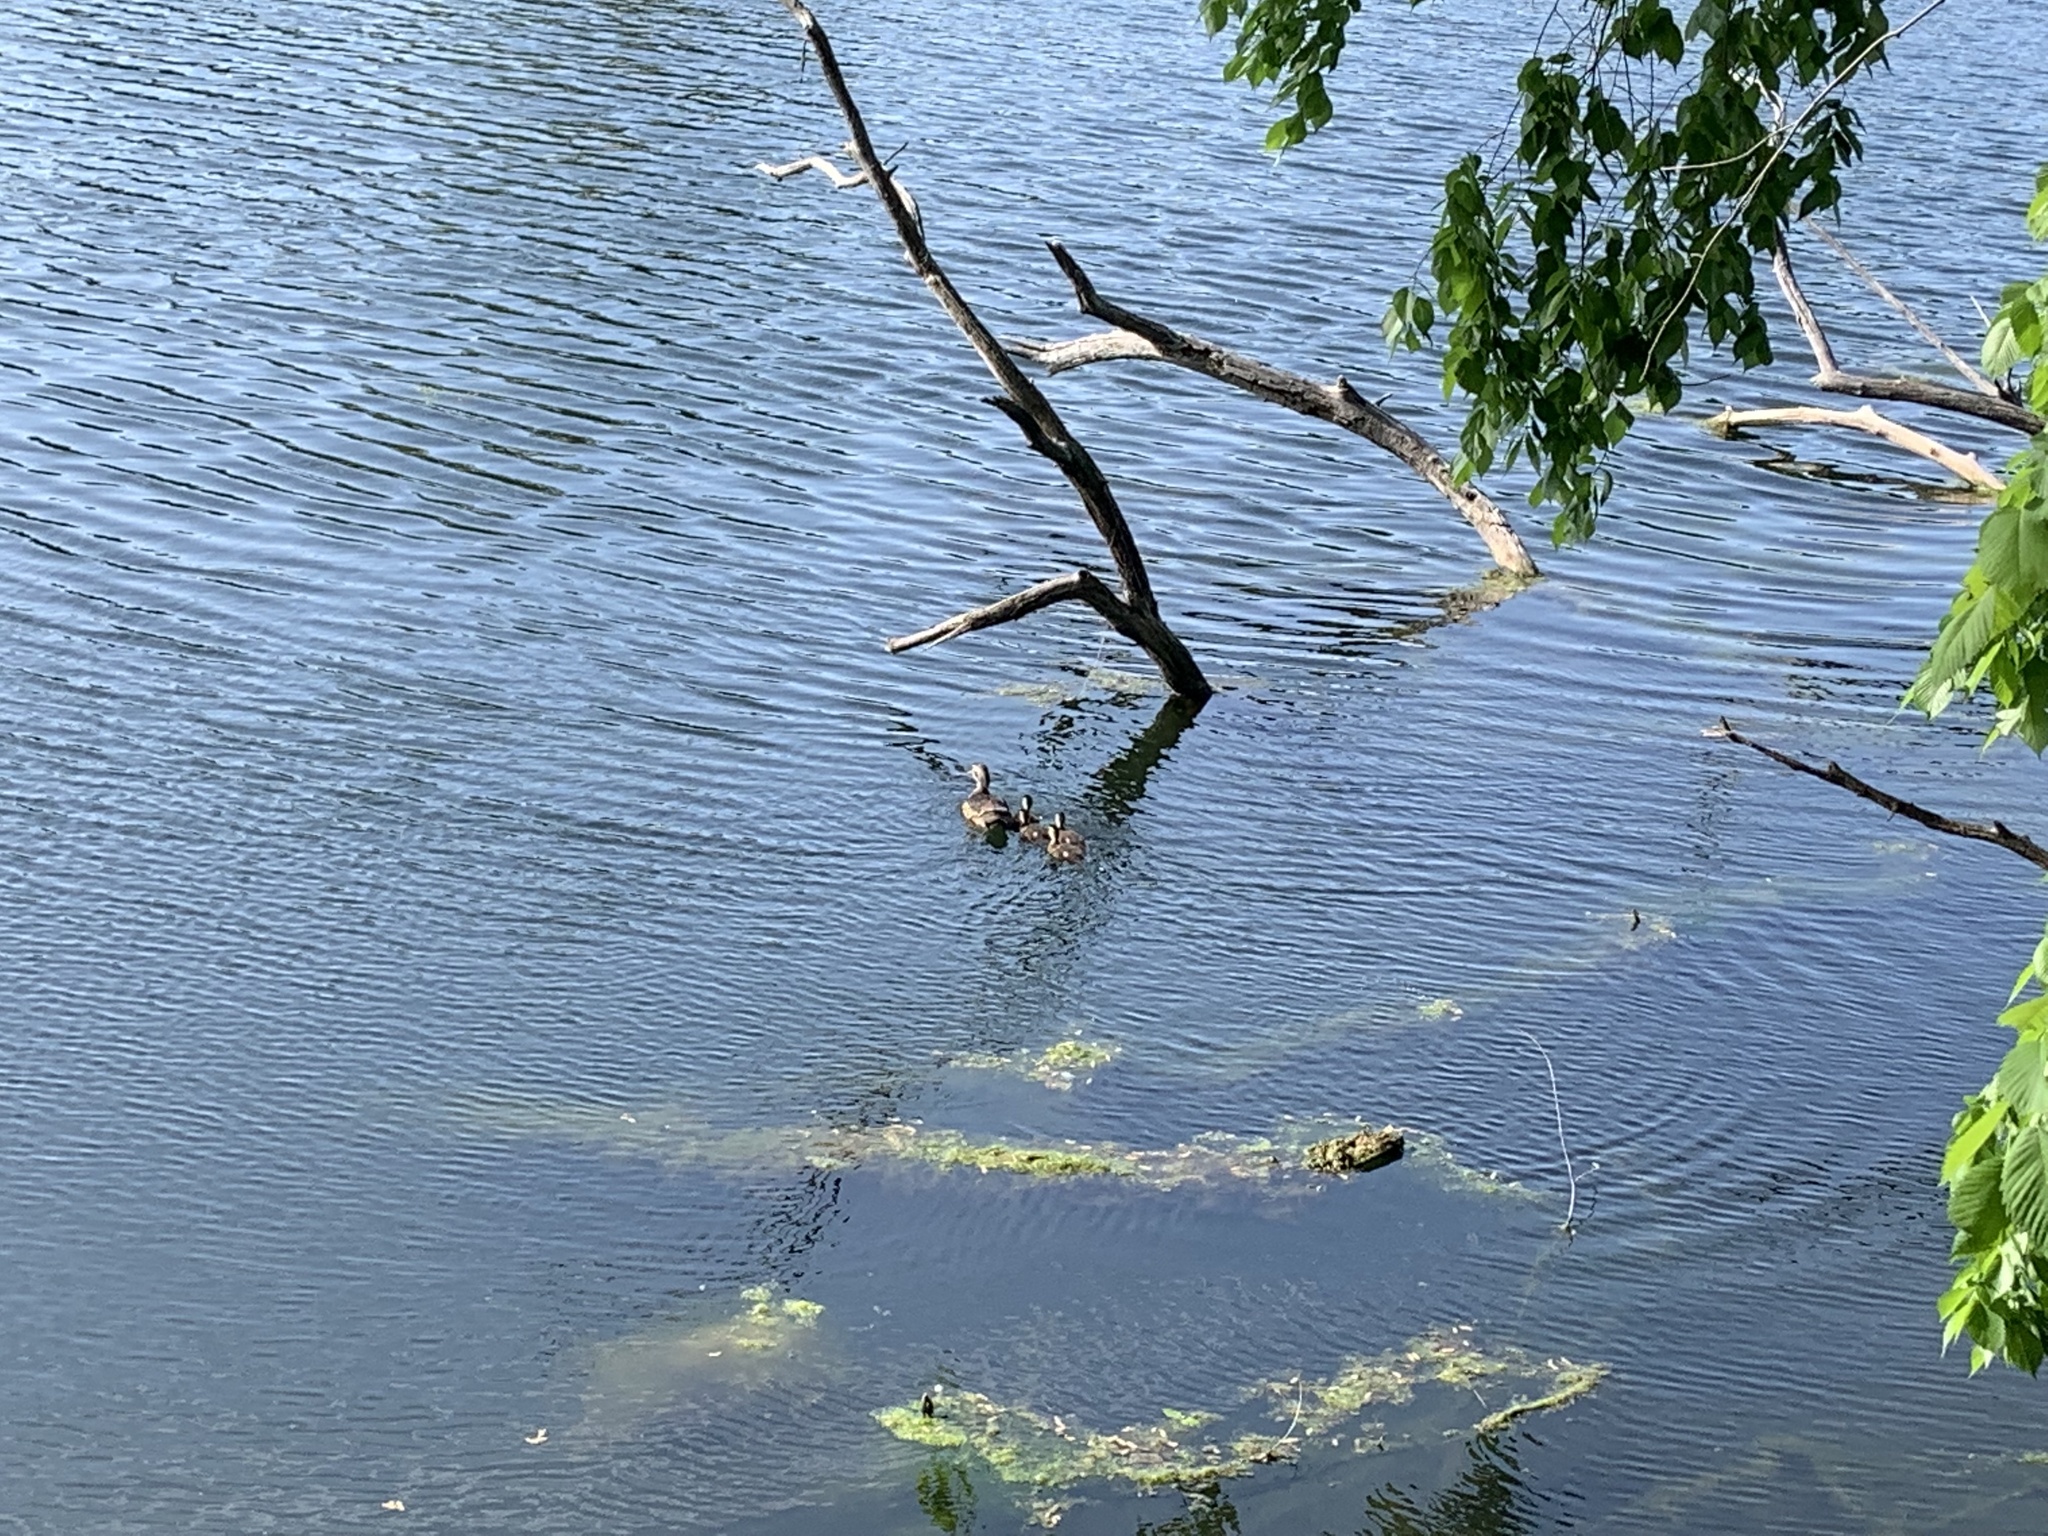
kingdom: Animalia
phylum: Chordata
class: Aves
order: Anseriformes
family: Anatidae
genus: Aix
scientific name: Aix sponsa
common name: Wood duck
